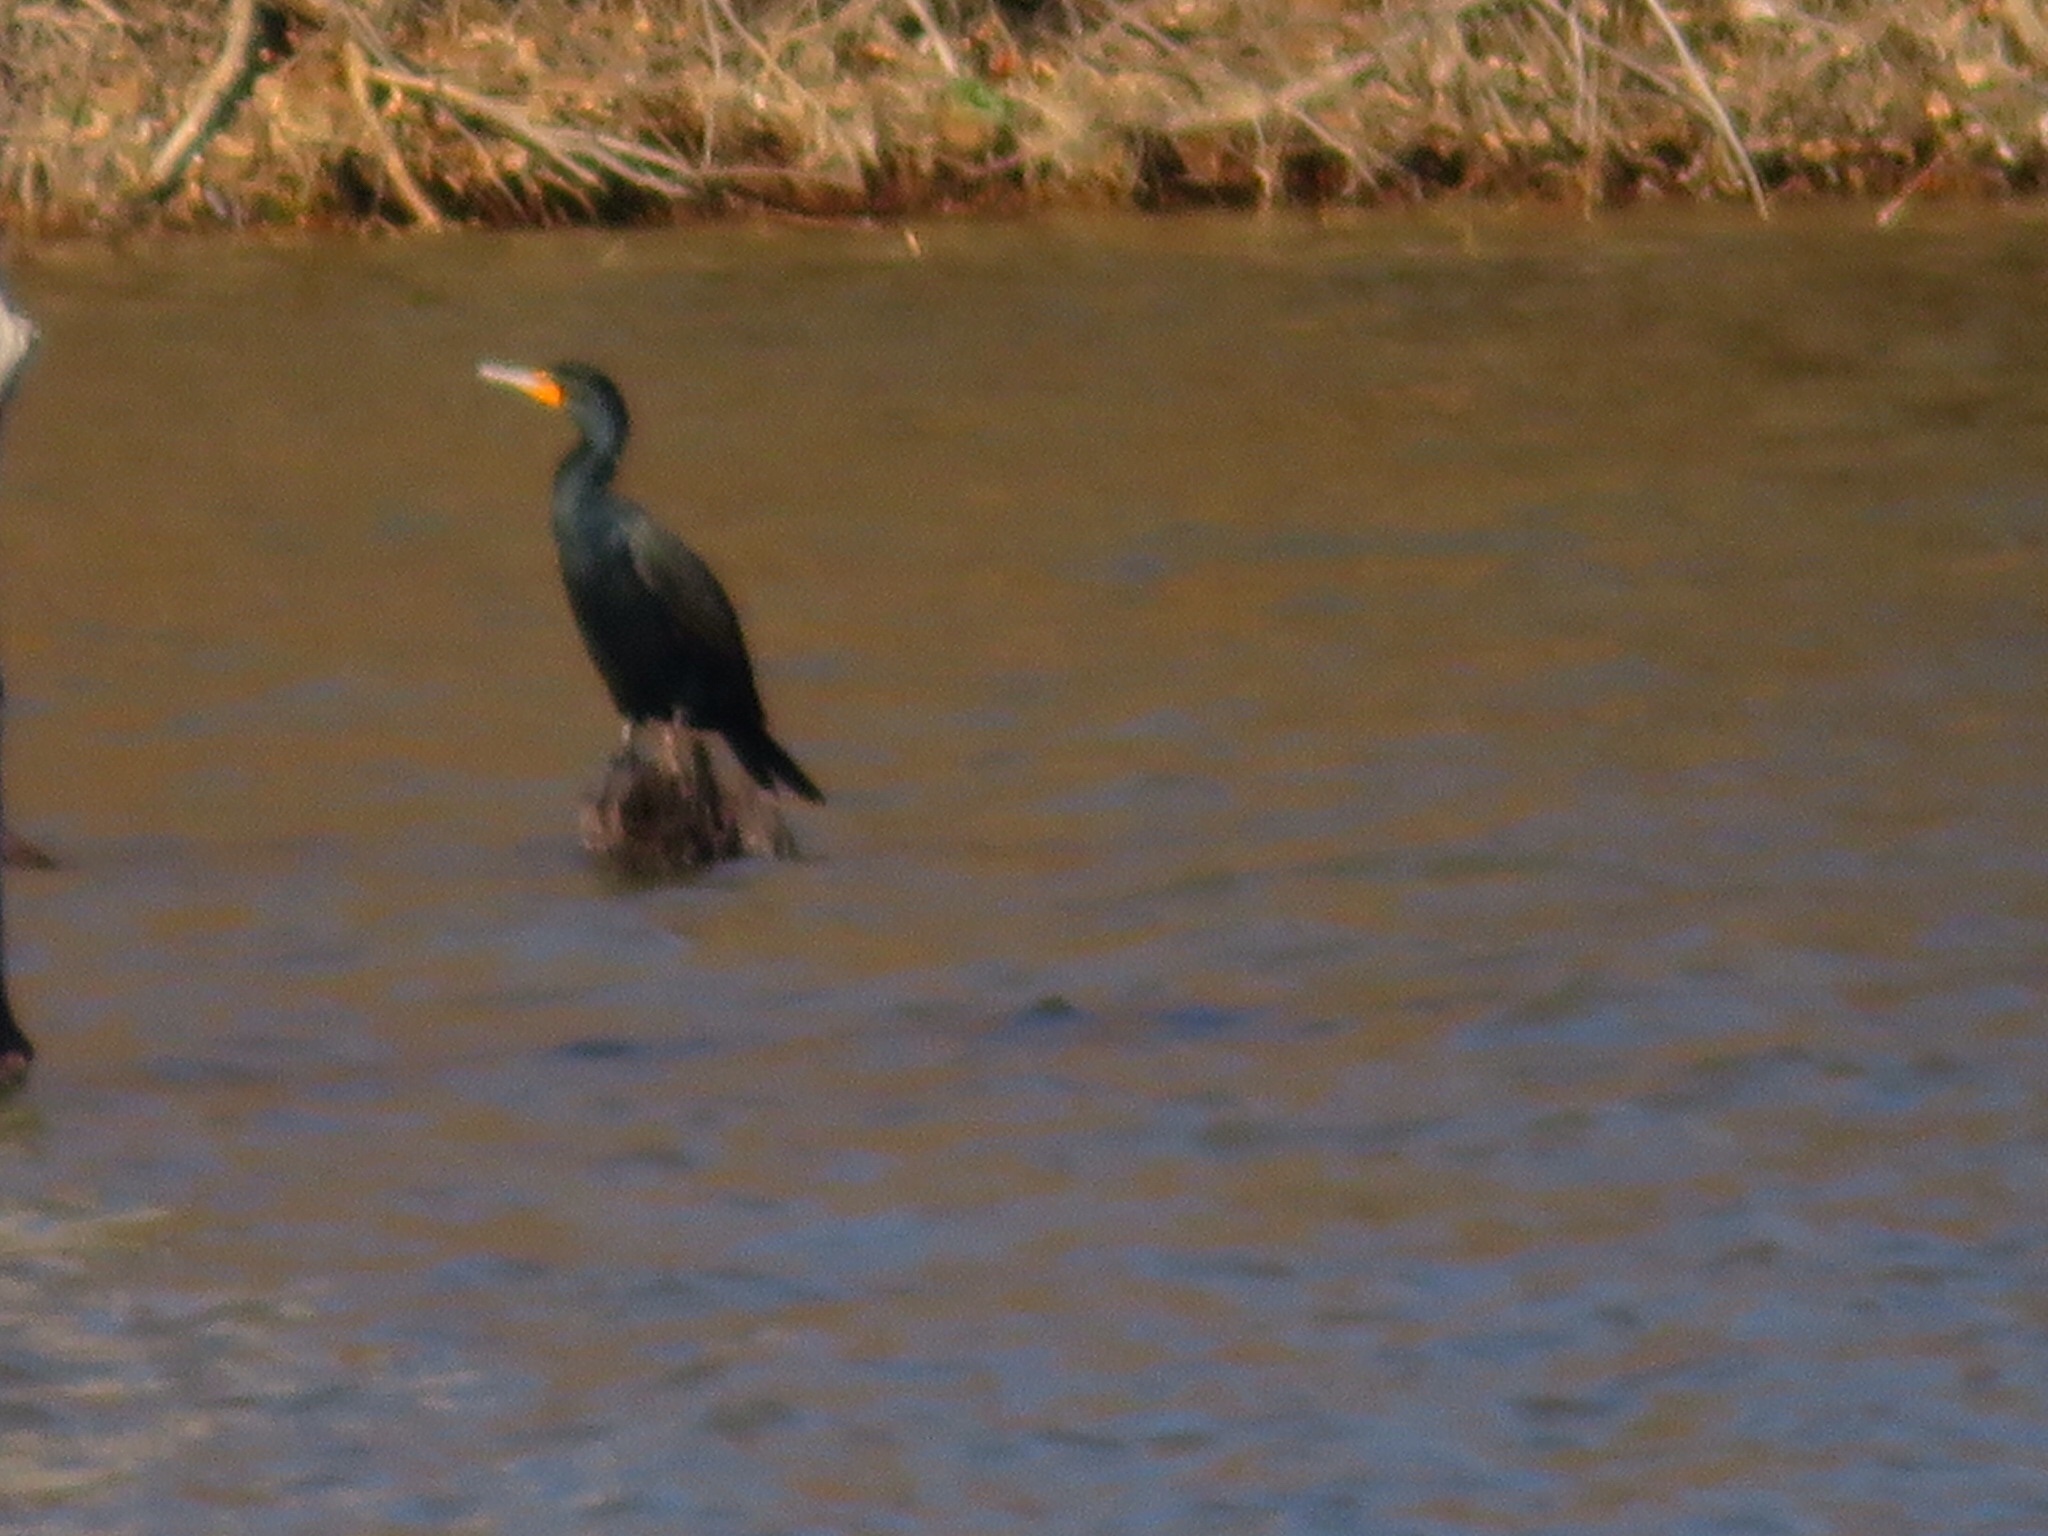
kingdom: Animalia
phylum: Chordata
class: Aves
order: Suliformes
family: Phalacrocoracidae
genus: Phalacrocorax
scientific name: Phalacrocorax auritus
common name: Double-crested cormorant
